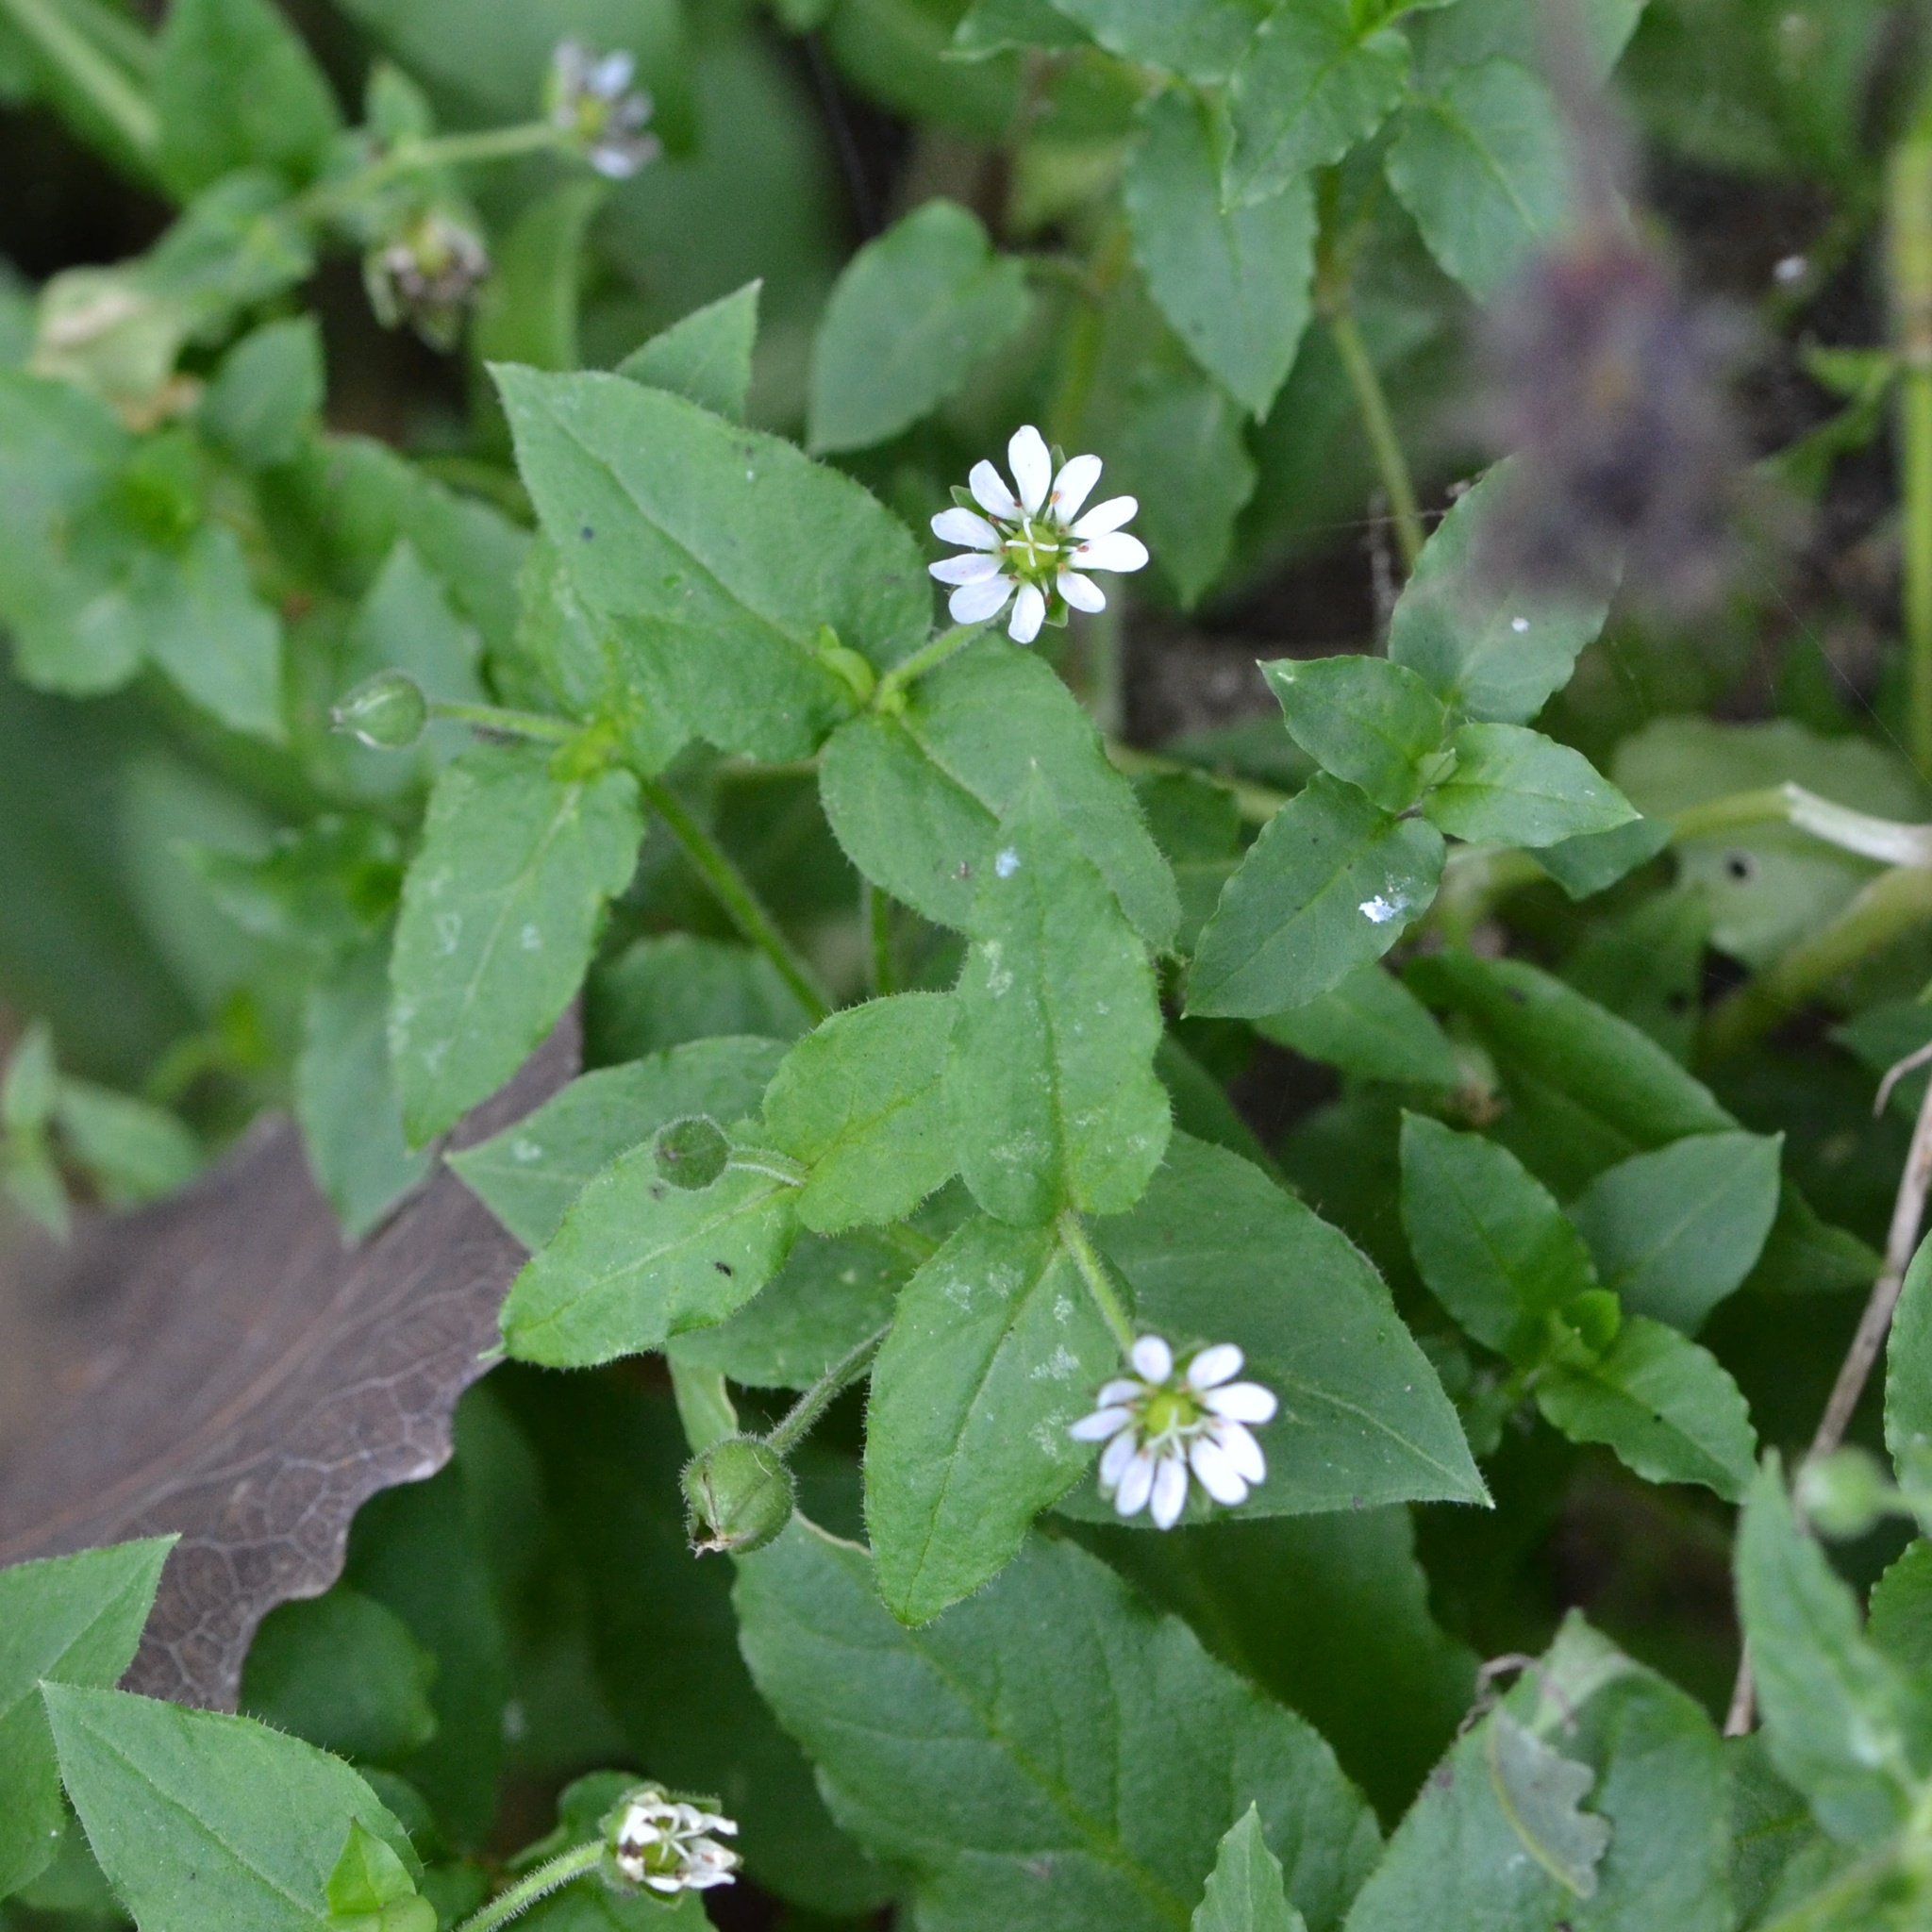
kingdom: Plantae
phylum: Tracheophyta
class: Magnoliopsida
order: Caryophyllales
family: Caryophyllaceae
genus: Stellaria
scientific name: Stellaria aquatica
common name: Water chickweed
